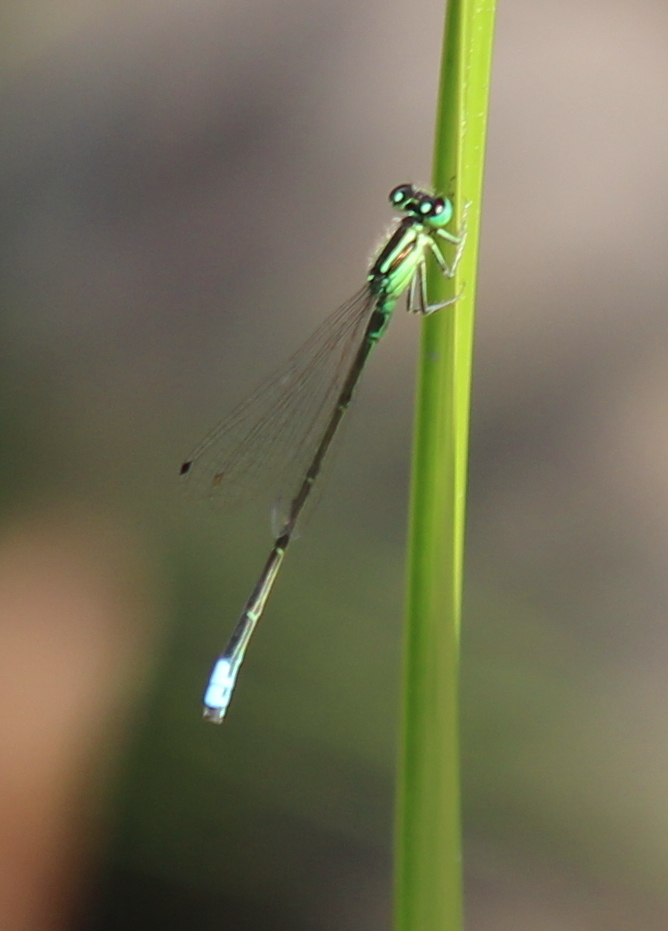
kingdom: Animalia
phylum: Arthropoda
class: Insecta
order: Odonata
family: Coenagrionidae
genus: Ischnura
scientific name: Ischnura verticalis
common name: Eastern forktail
